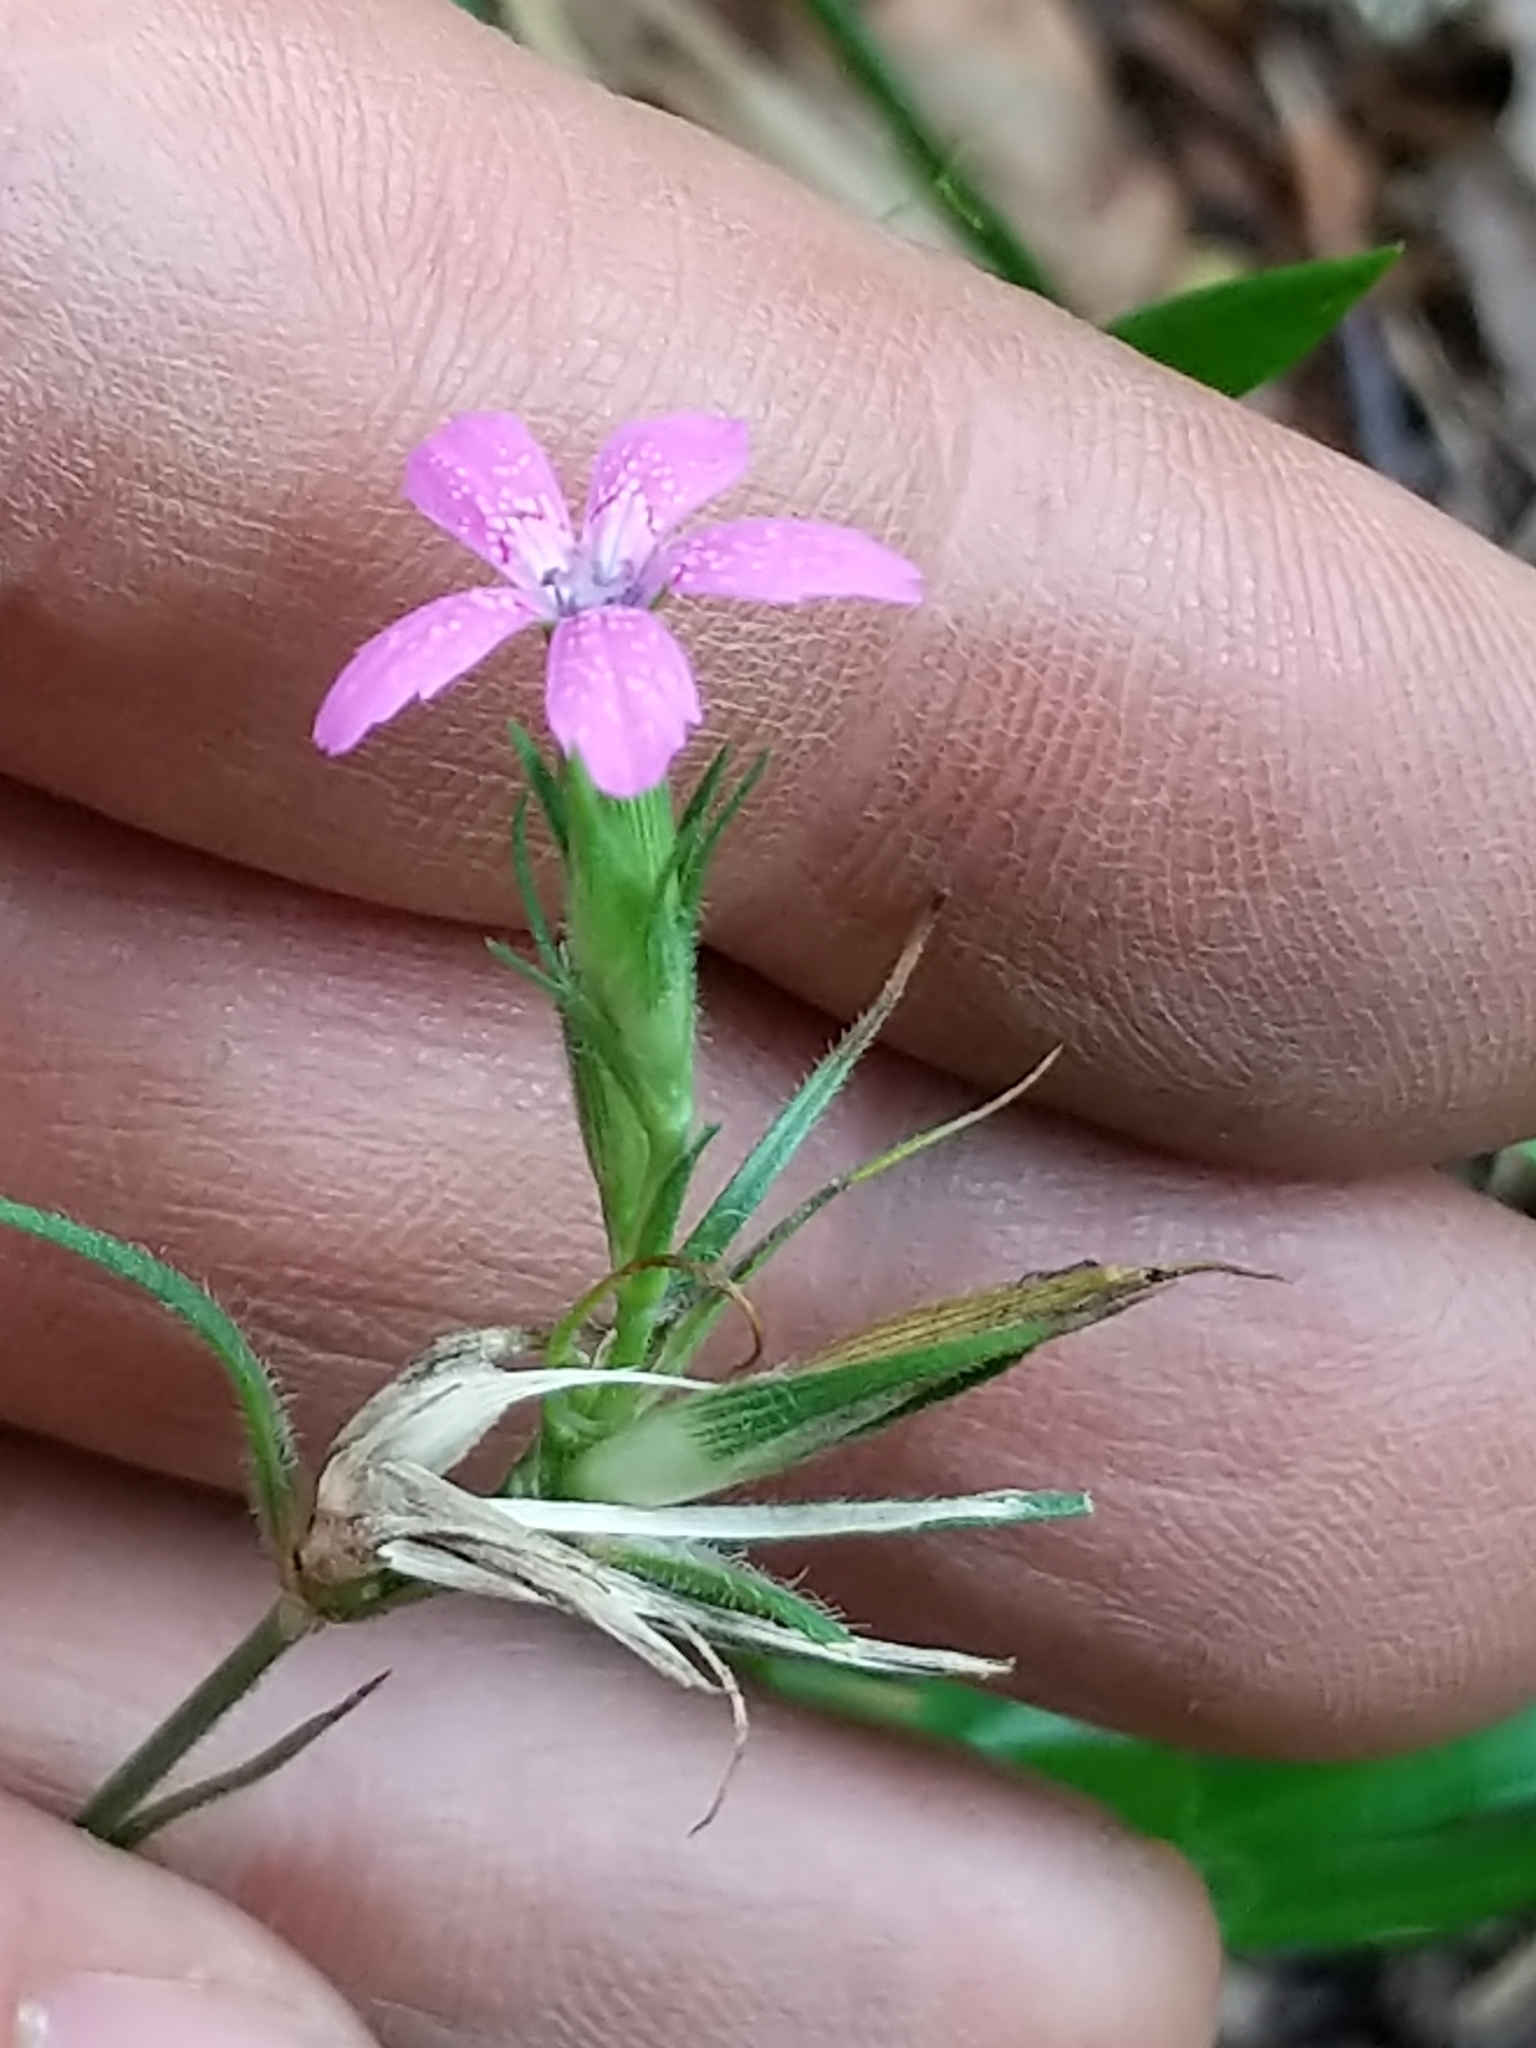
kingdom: Plantae
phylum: Tracheophyta
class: Magnoliopsida
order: Caryophyllales
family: Caryophyllaceae
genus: Dianthus
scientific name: Dianthus armeria
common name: Deptford pink
